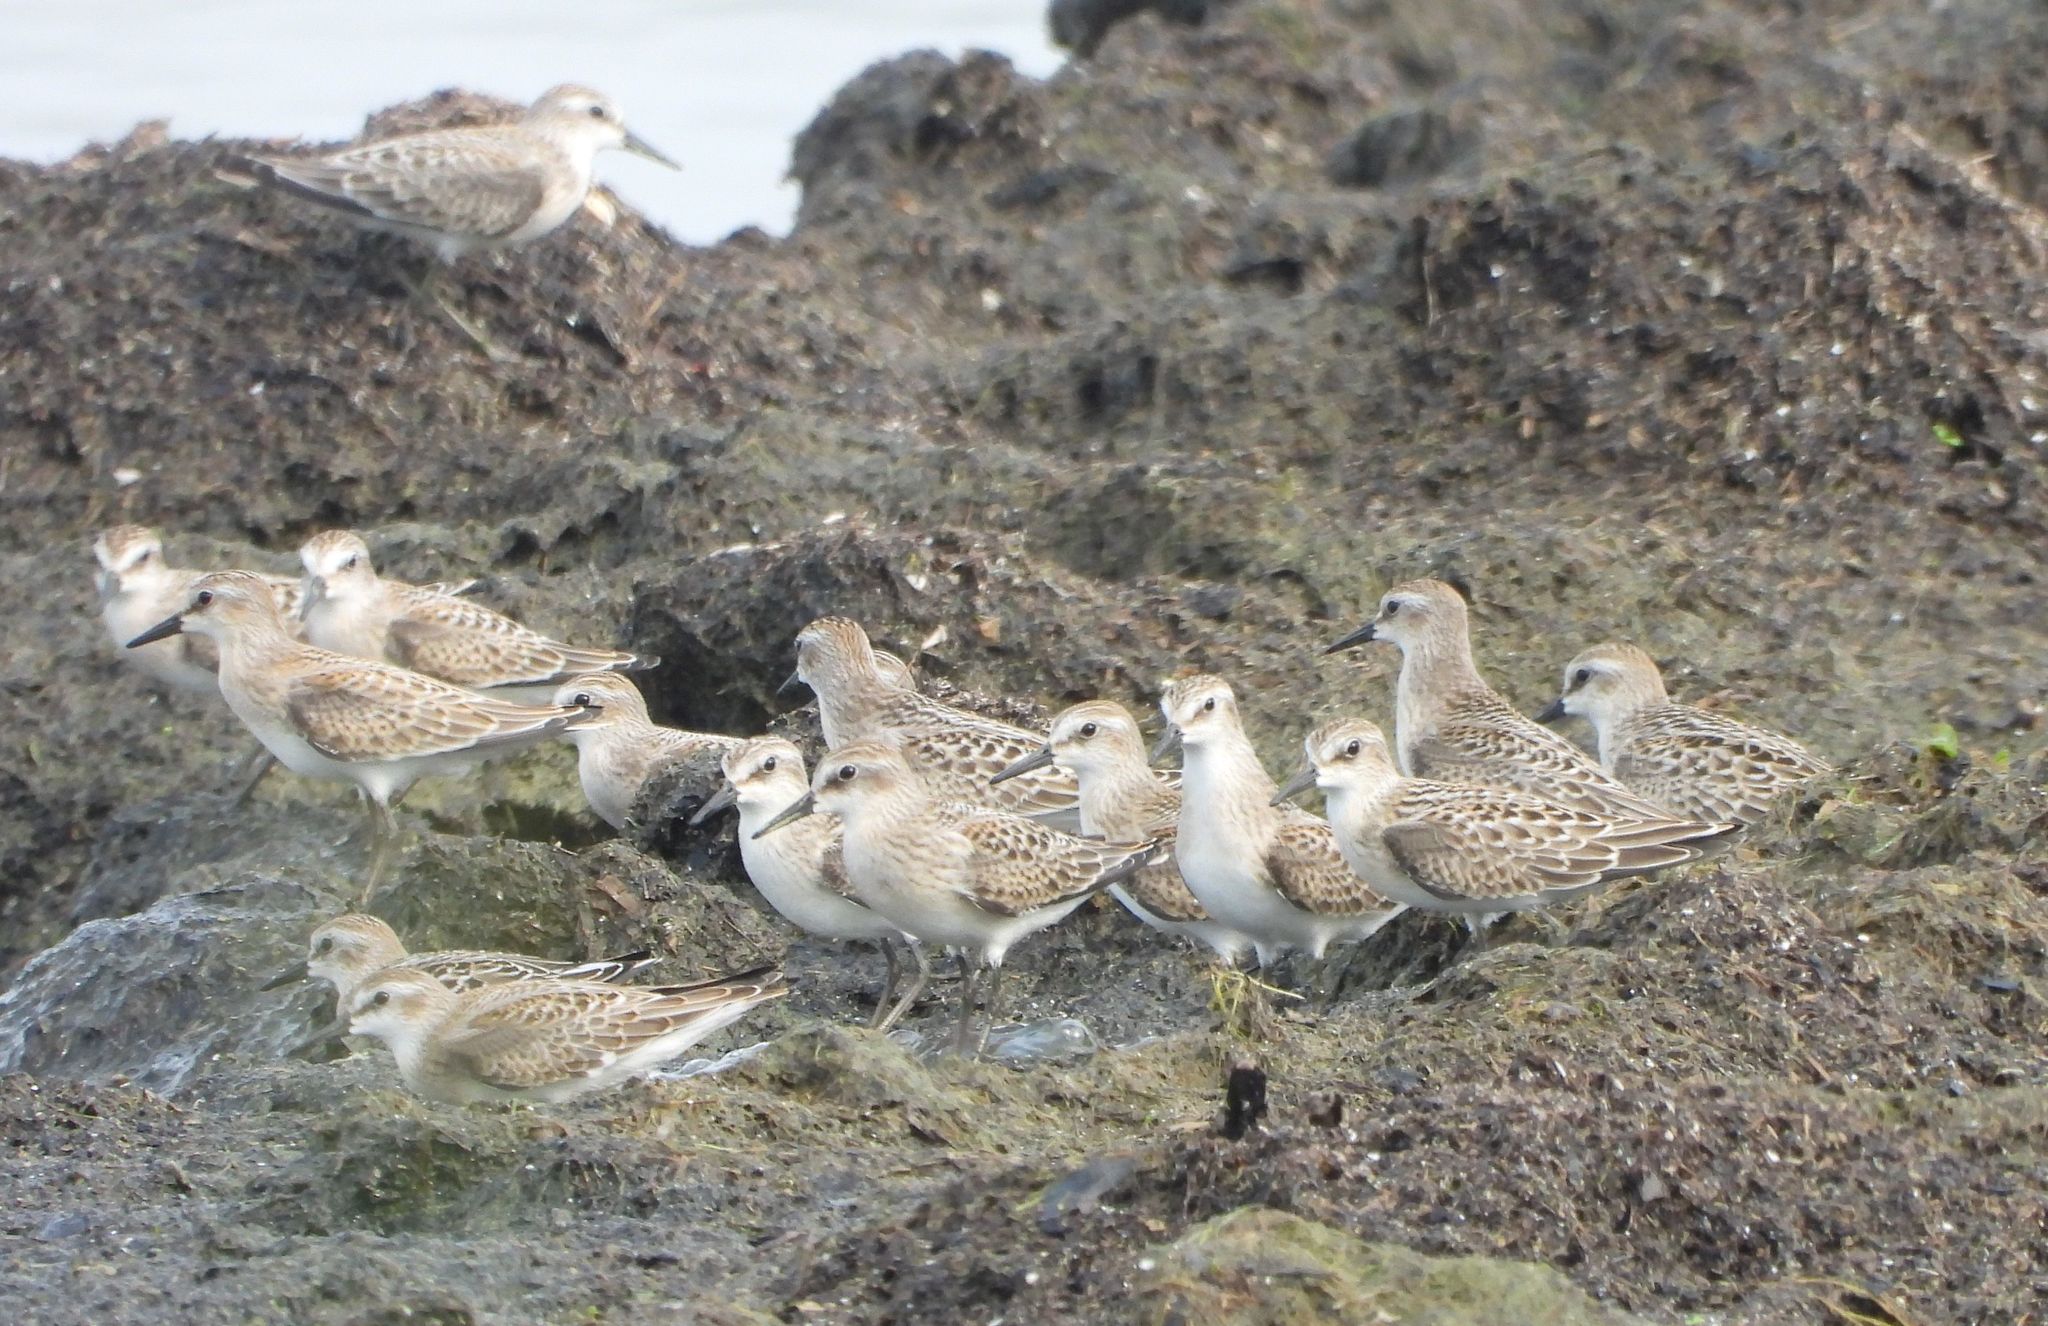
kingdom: Animalia
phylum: Chordata
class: Aves
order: Charadriiformes
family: Scolopacidae
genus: Calidris
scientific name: Calidris pusilla
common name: Semipalmated sandpiper
